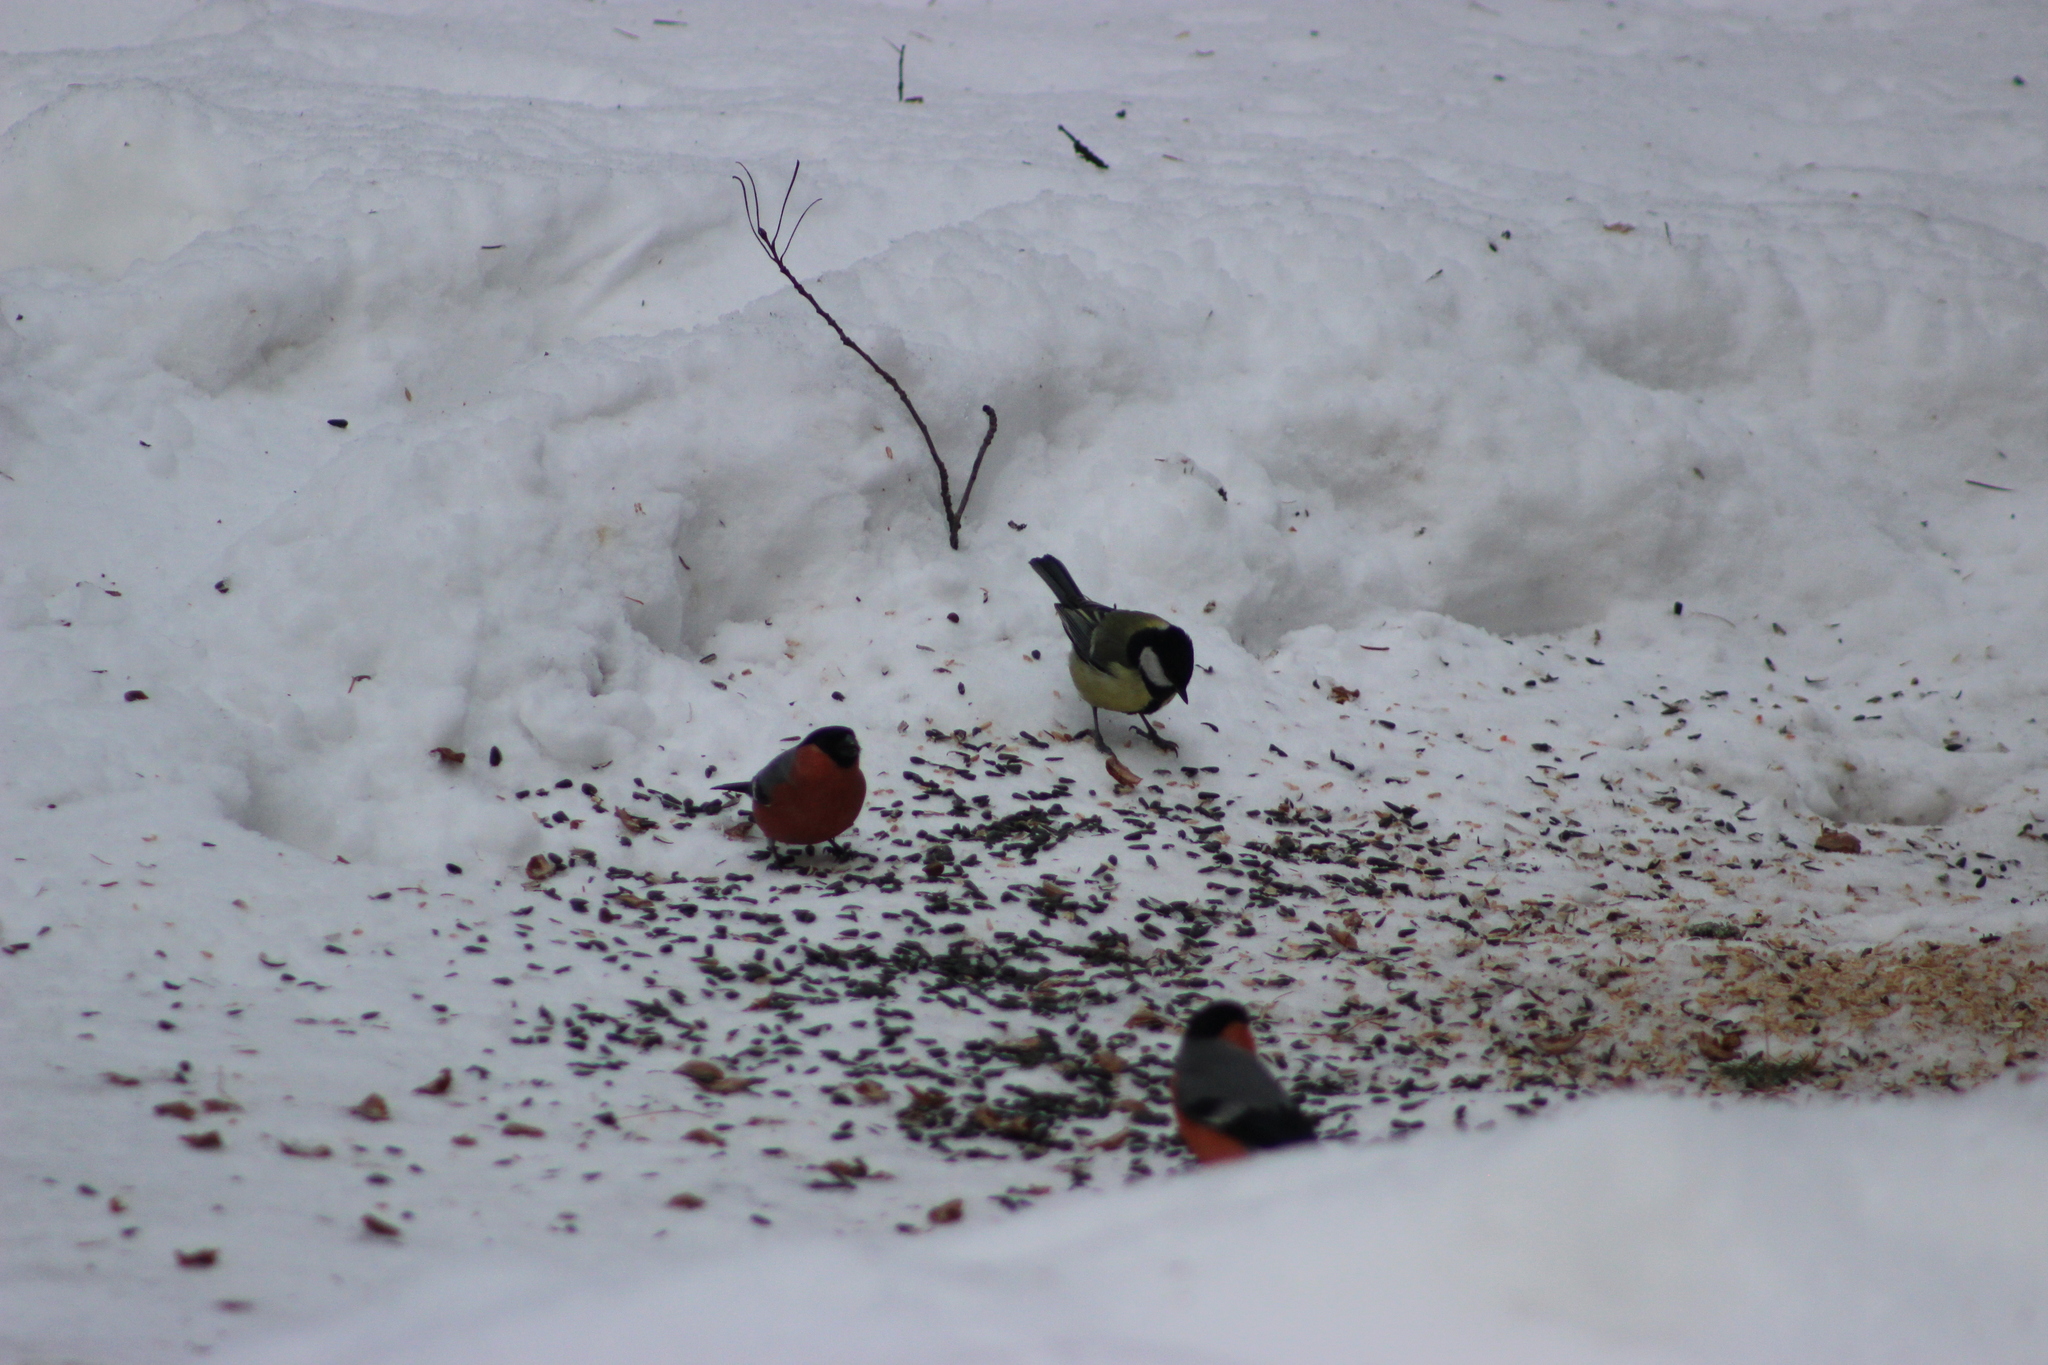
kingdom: Animalia
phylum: Chordata
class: Aves
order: Passeriformes
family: Fringillidae
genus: Pyrrhula
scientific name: Pyrrhula pyrrhula
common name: Eurasian bullfinch
